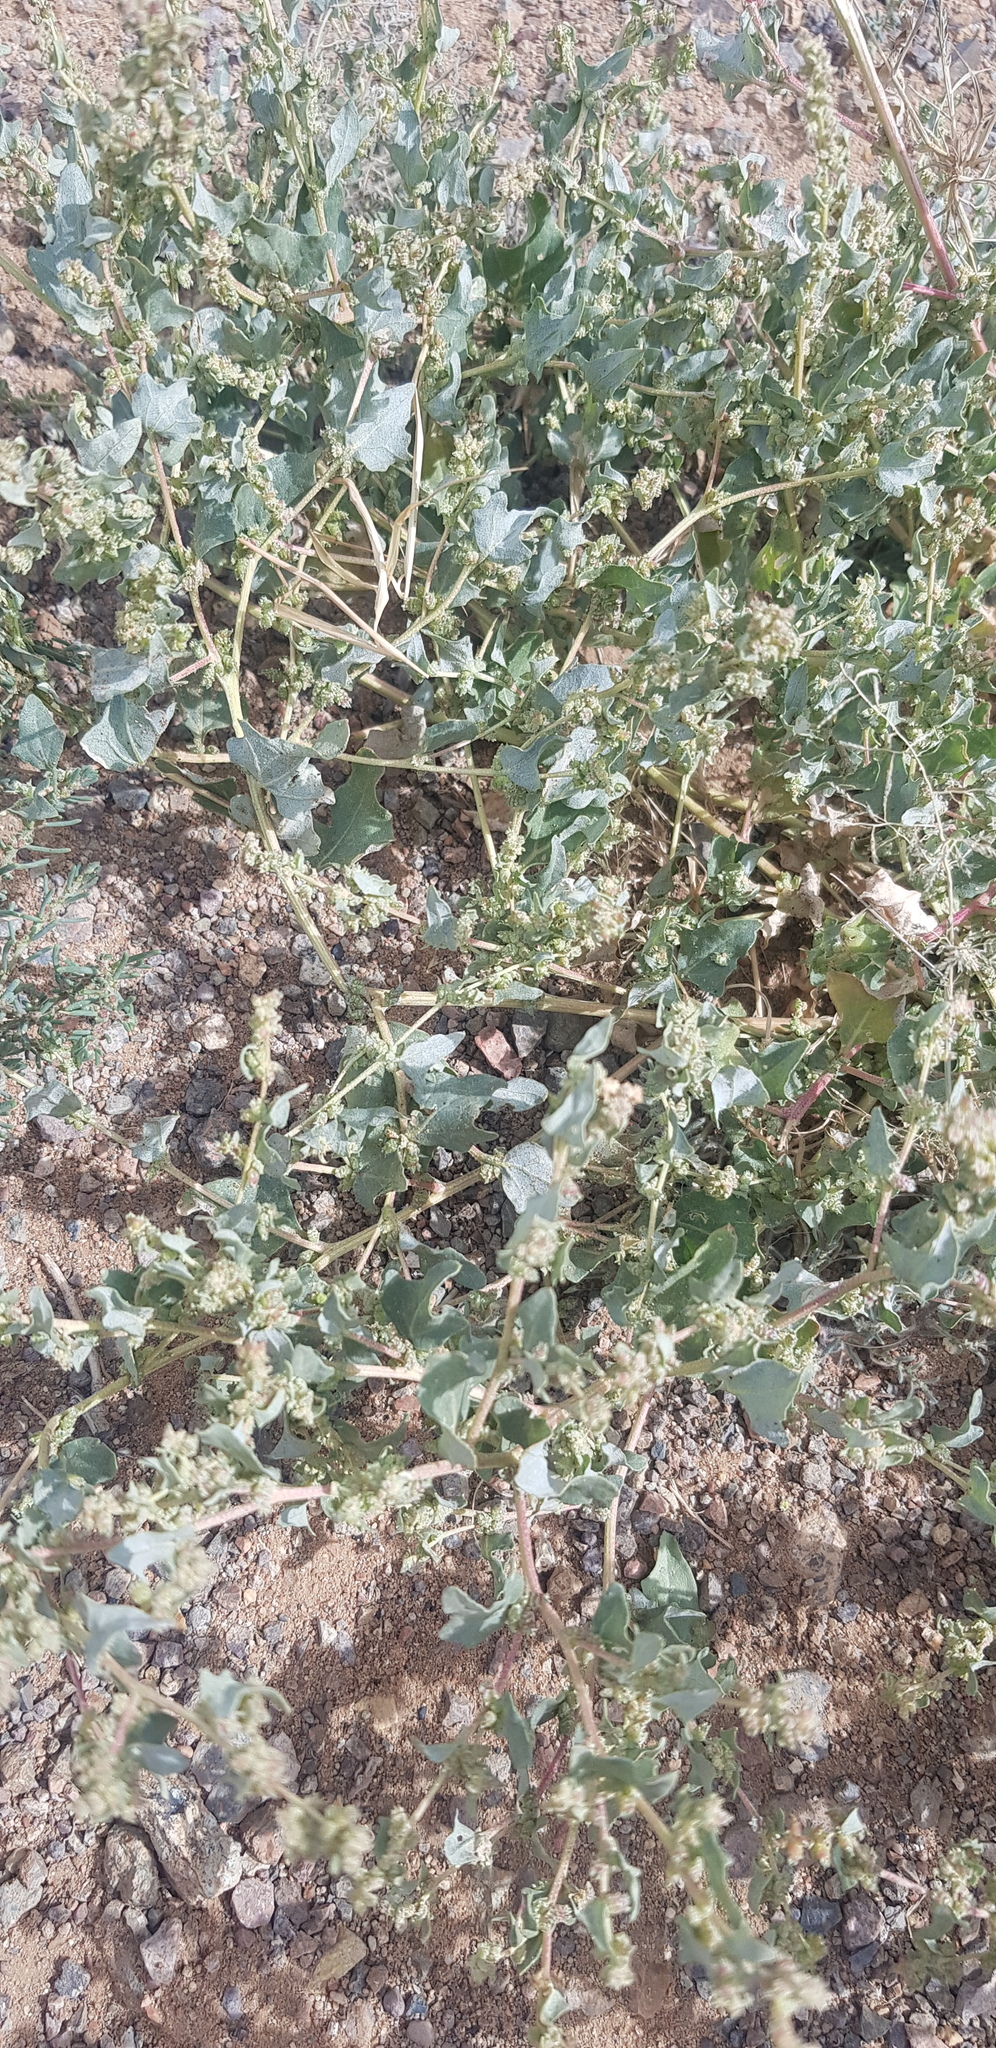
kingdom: Plantae
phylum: Tracheophyta
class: Magnoliopsida
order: Caryophyllales
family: Amaranthaceae
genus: Atriplex
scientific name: Atriplex sibirica
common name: Siberian saltbush
